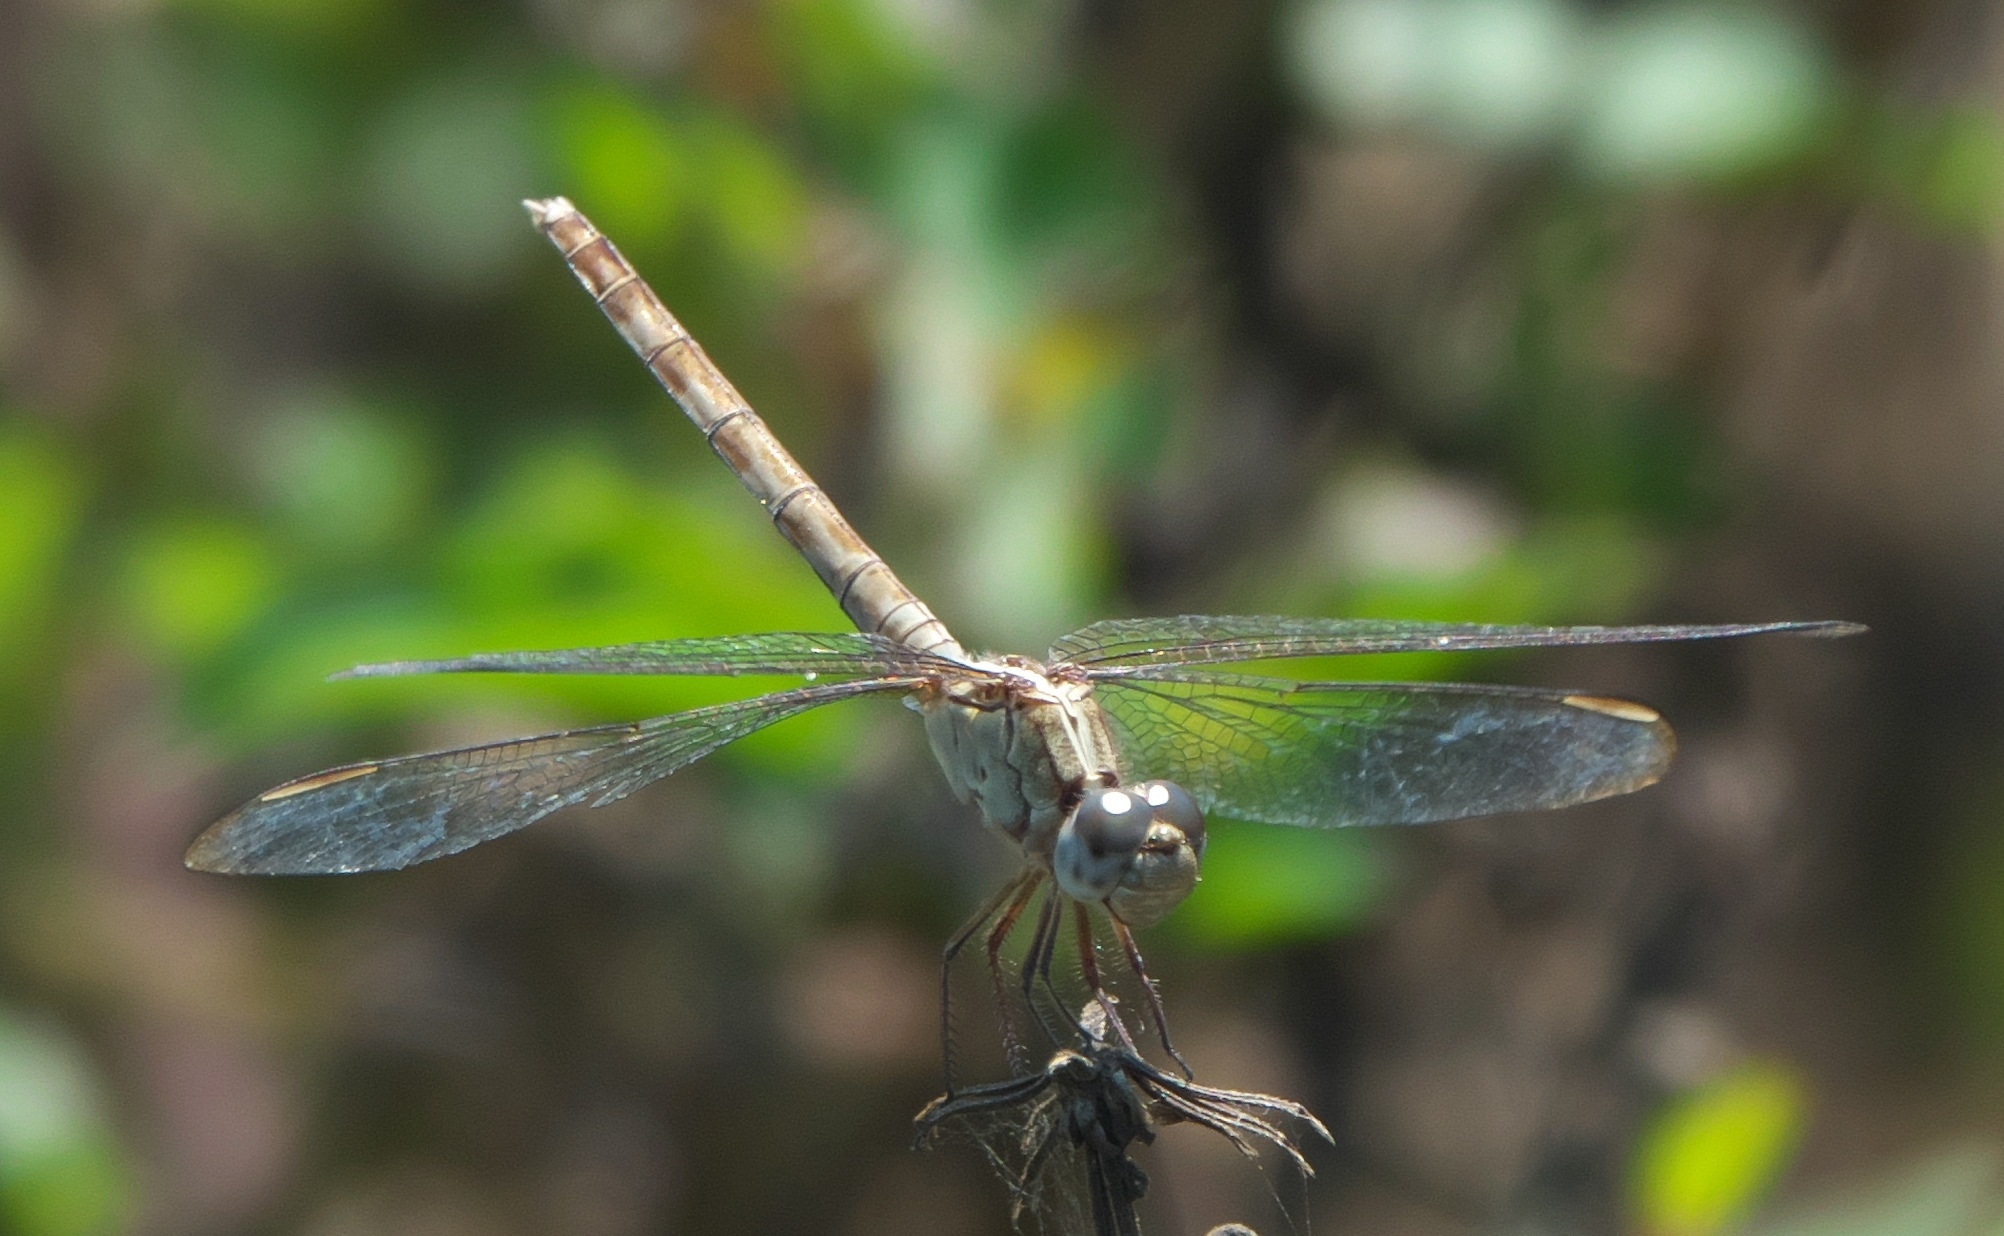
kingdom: Animalia
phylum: Arthropoda
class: Insecta
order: Odonata
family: Libellulidae
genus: Erythrodiplax
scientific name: Erythrodiplax umbrata
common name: Band-winged dragonlet
